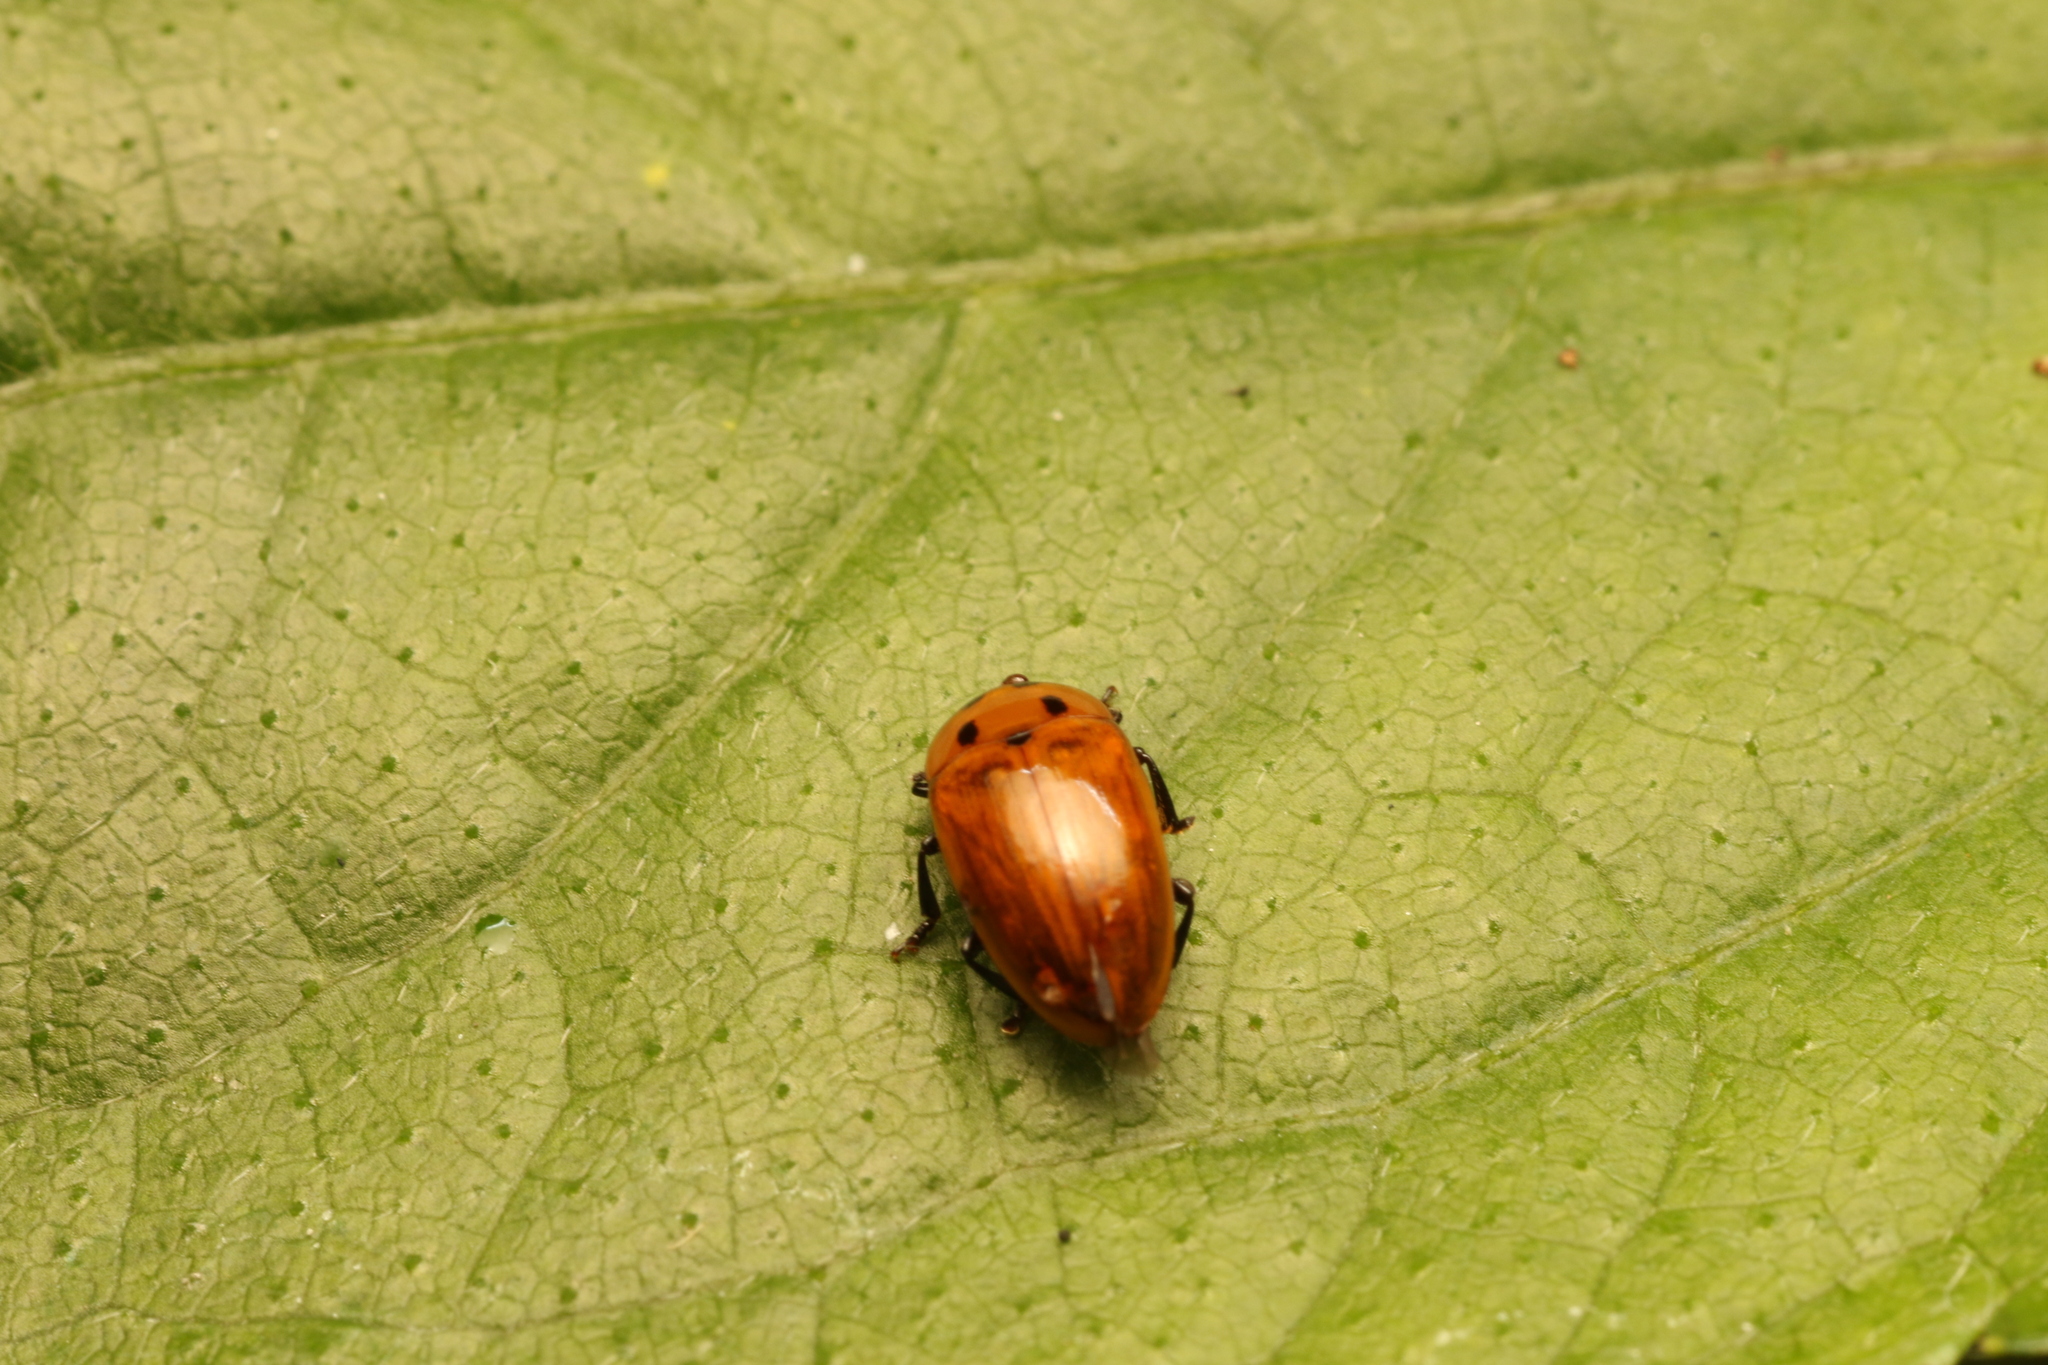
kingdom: Animalia
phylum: Arthropoda
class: Insecta
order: Coleoptera
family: Erotylidae
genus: Mycotretus
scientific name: Mycotretus minutus
